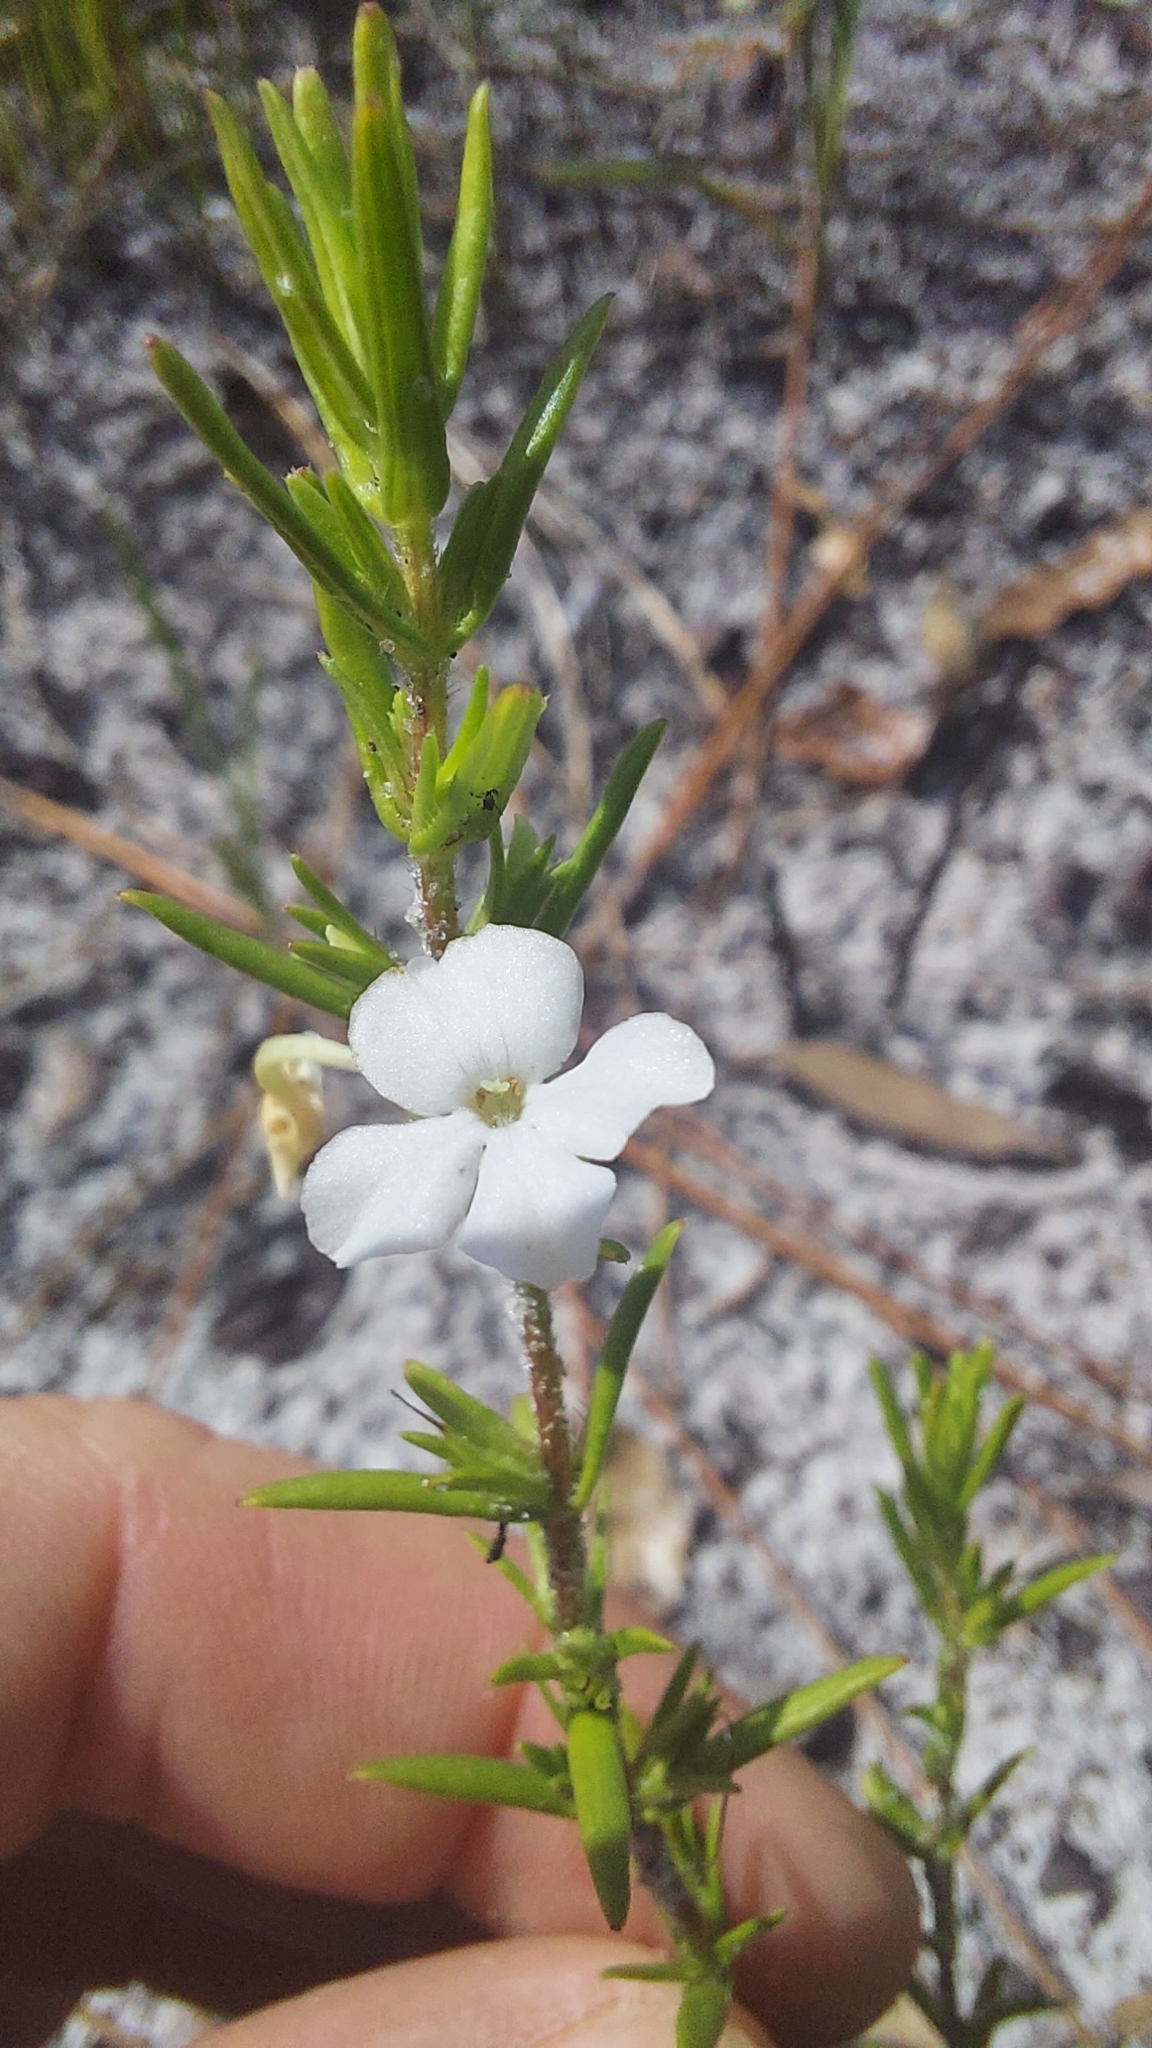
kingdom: Plantae
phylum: Tracheophyta
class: Magnoliopsida
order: Lamiales
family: Plantaginaceae
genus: Gratiola
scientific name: Gratiola hispida
